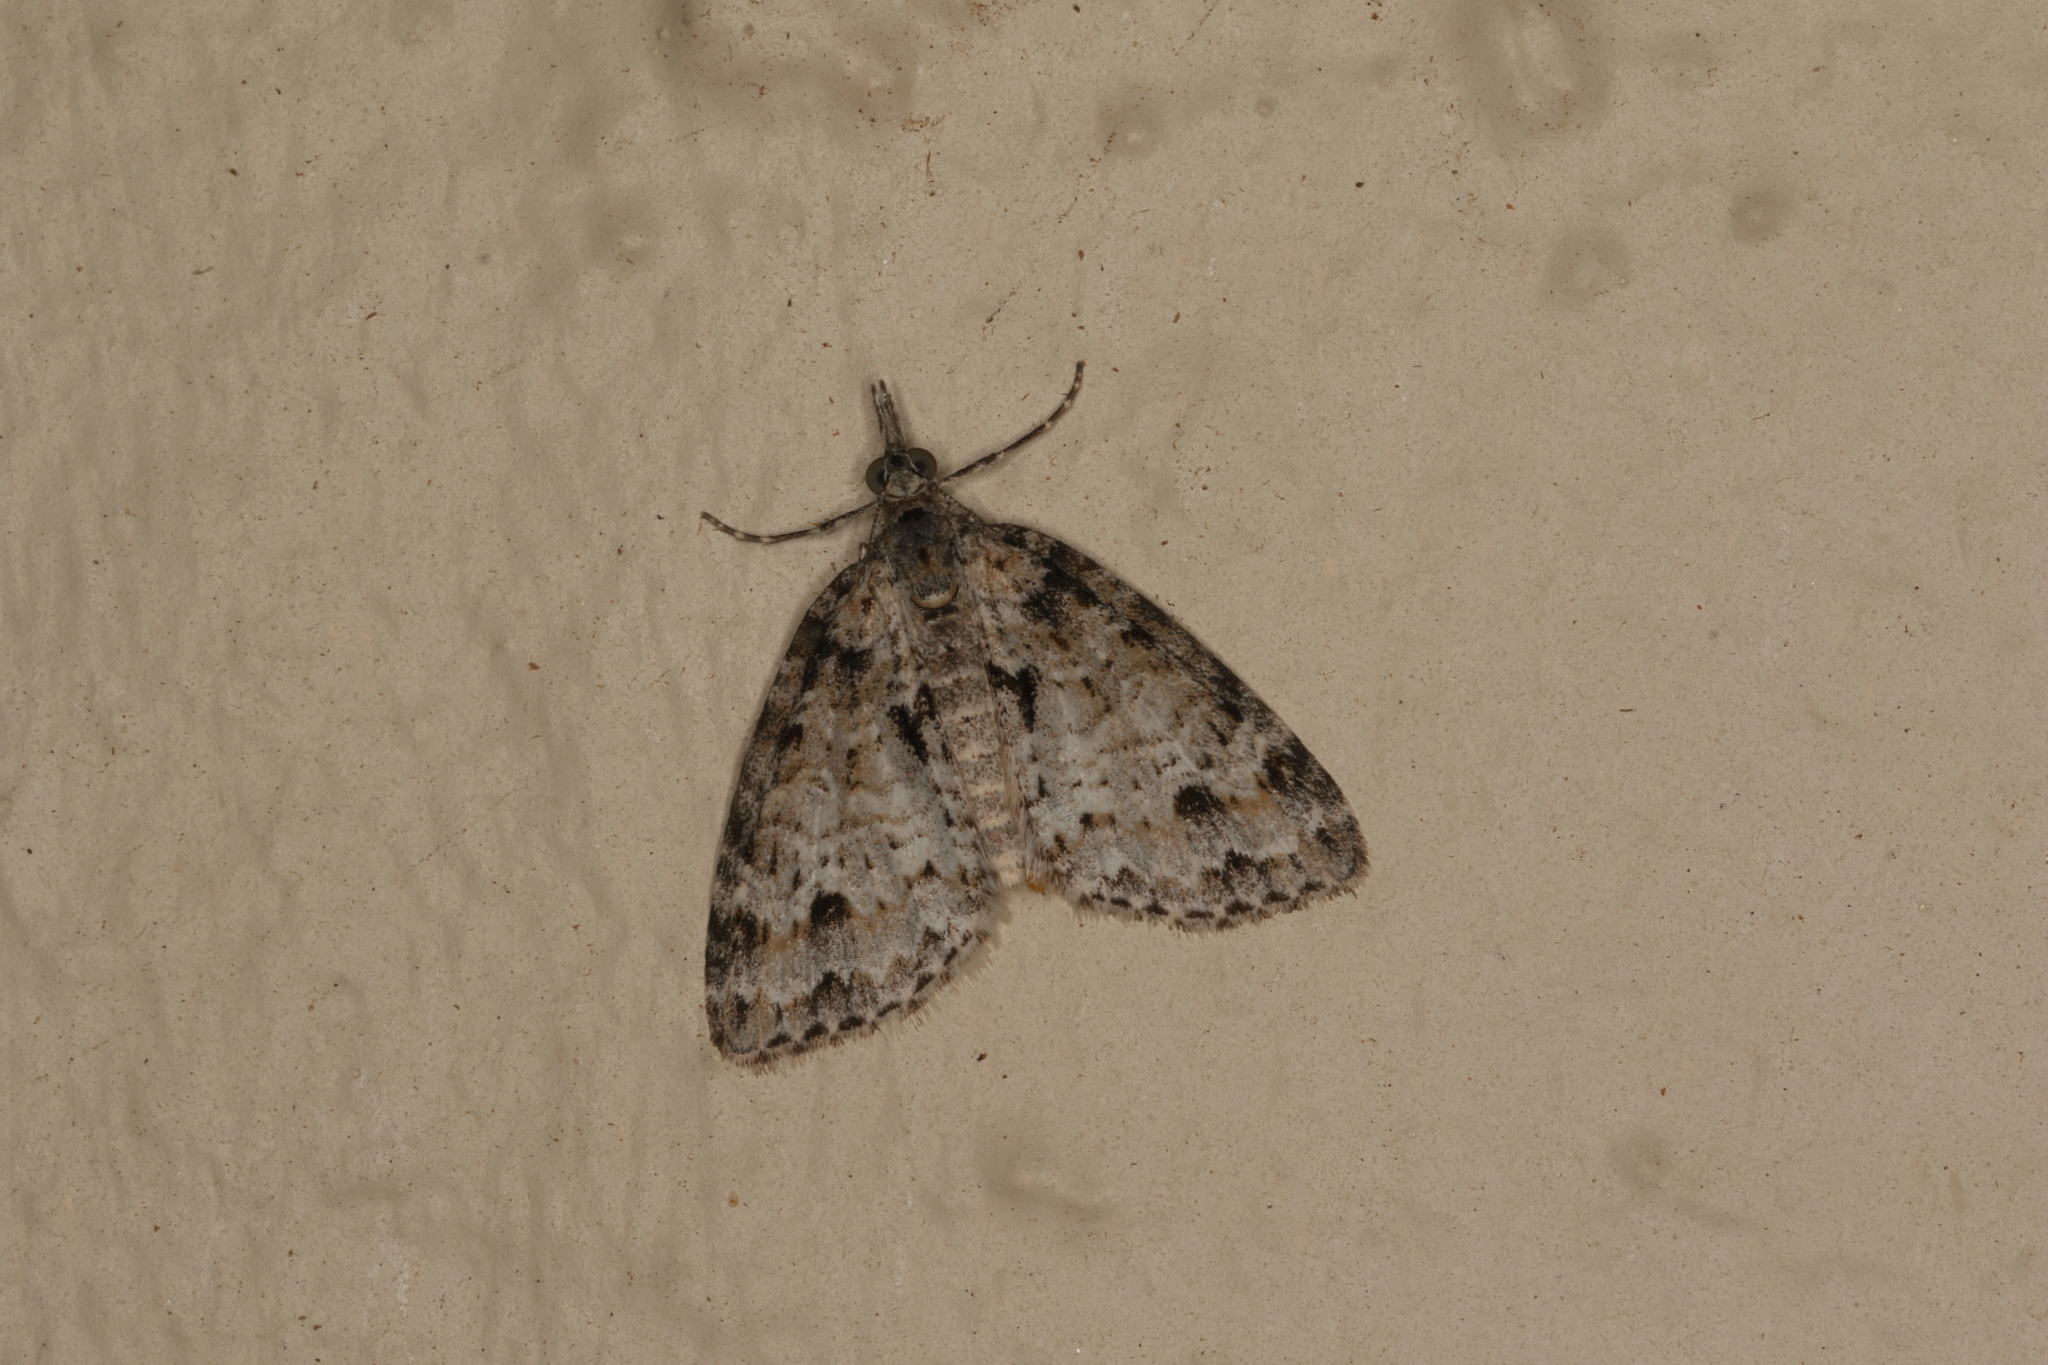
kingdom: Animalia
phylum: Arthropoda
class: Insecta
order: Lepidoptera
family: Geometridae
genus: Microdes
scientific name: Microdes villosata
